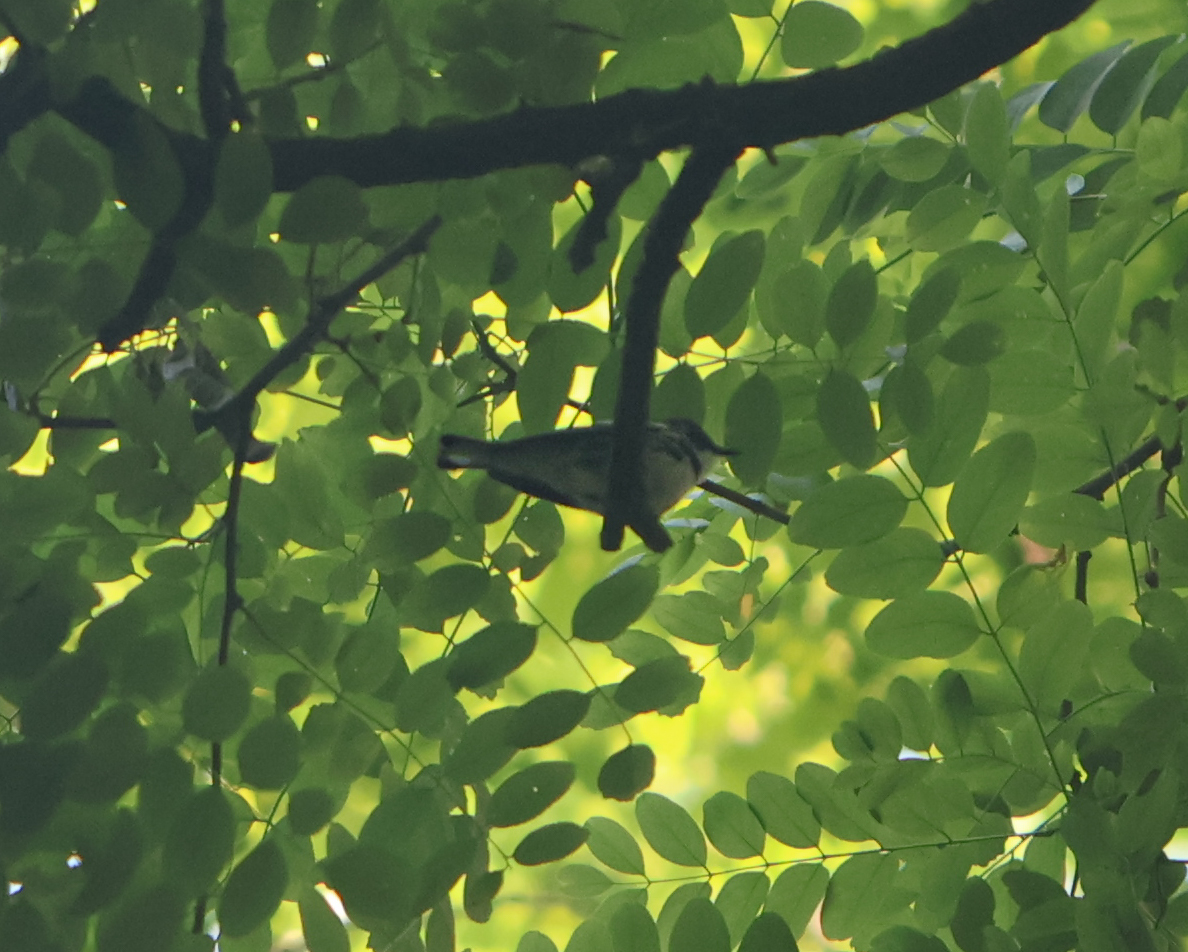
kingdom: Animalia
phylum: Chordata
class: Aves
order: Passeriformes
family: Parulidae
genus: Setophaga
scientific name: Setophaga cerulea
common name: Cerulean warbler
